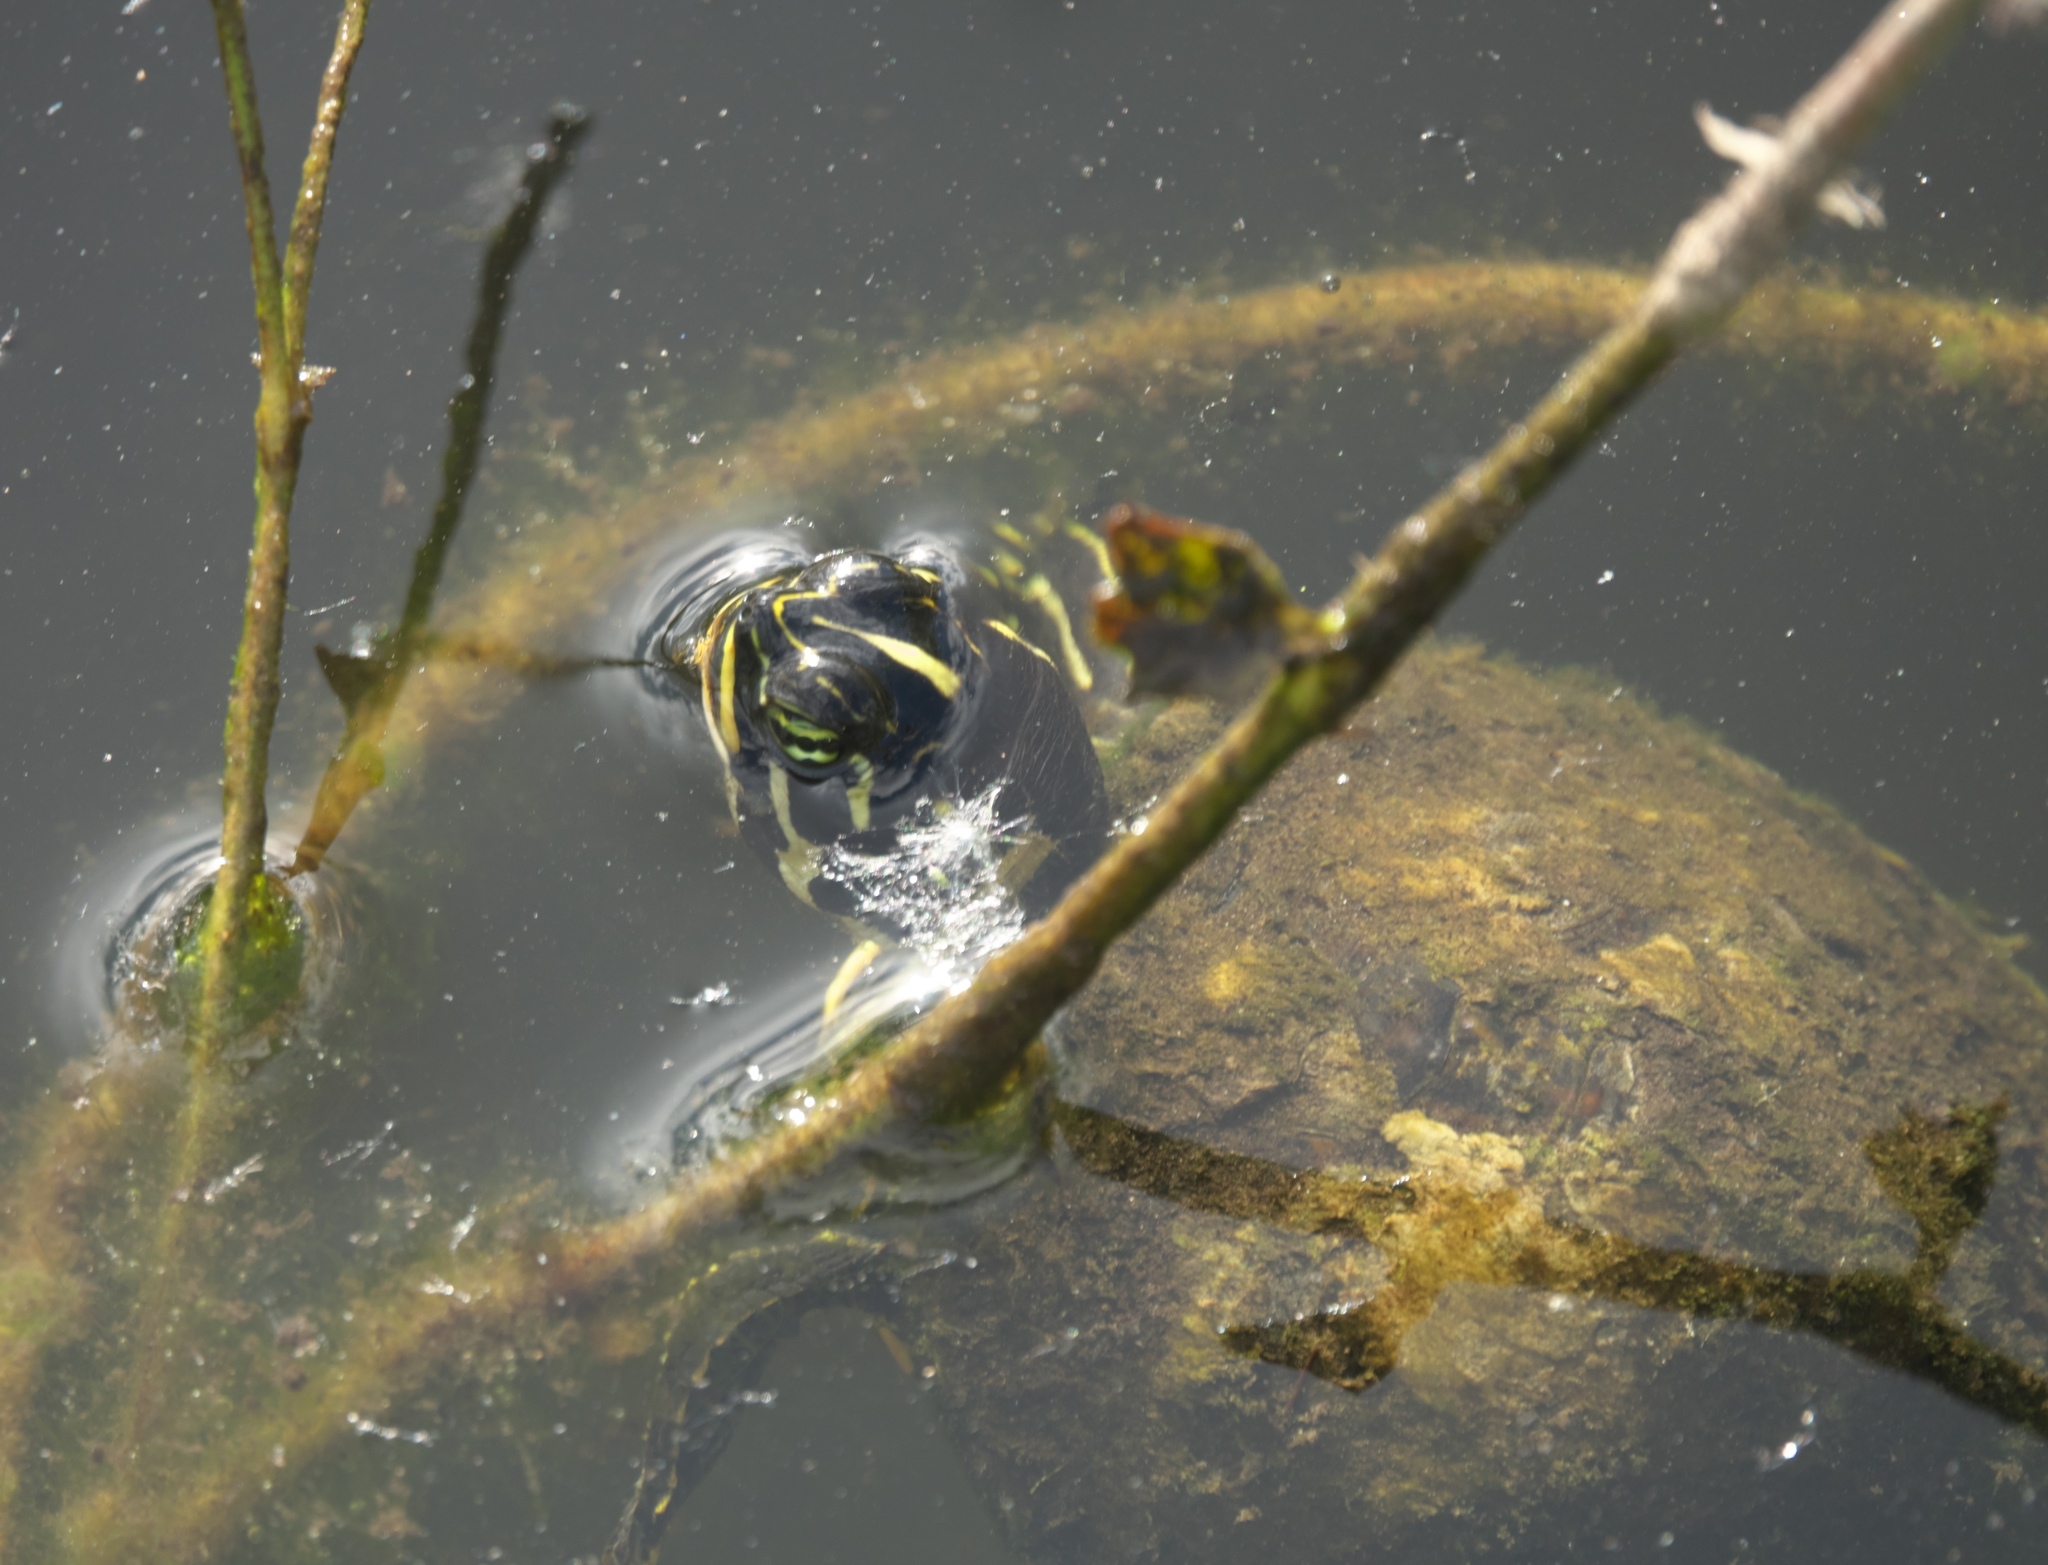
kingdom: Animalia
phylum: Chordata
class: Testudines
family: Emydidae
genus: Trachemys
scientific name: Trachemys scripta
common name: Slider
